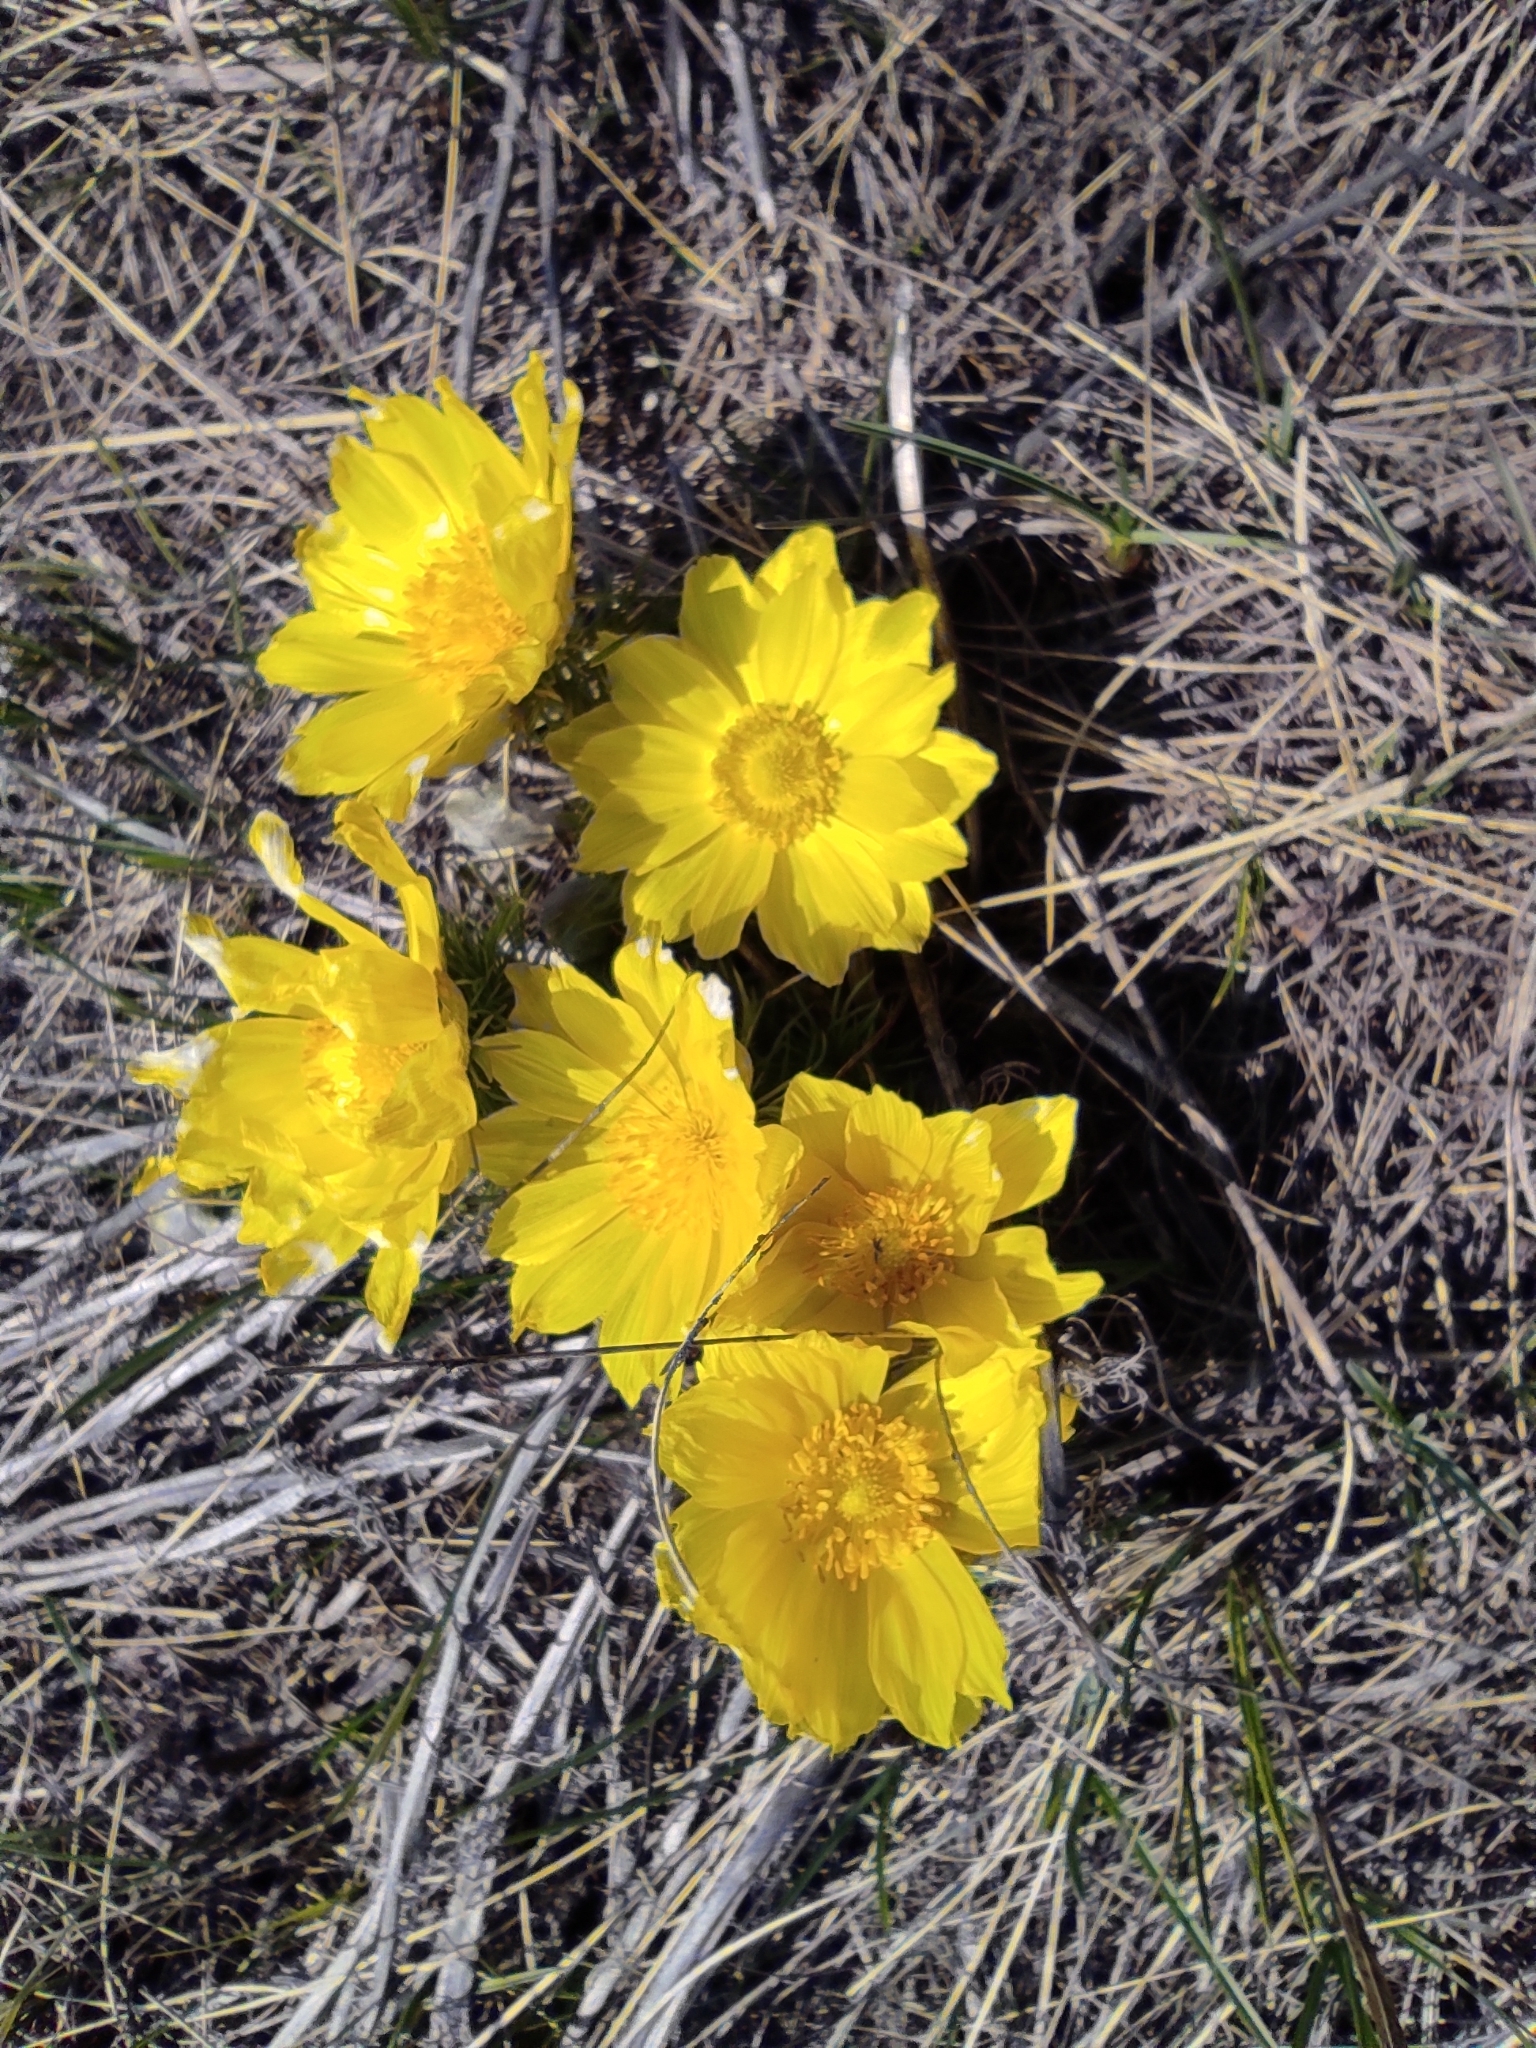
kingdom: Plantae
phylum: Tracheophyta
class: Magnoliopsida
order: Ranunculales
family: Ranunculaceae
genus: Adonis
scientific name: Adonis vernalis
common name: Yellow pheasants-eye
